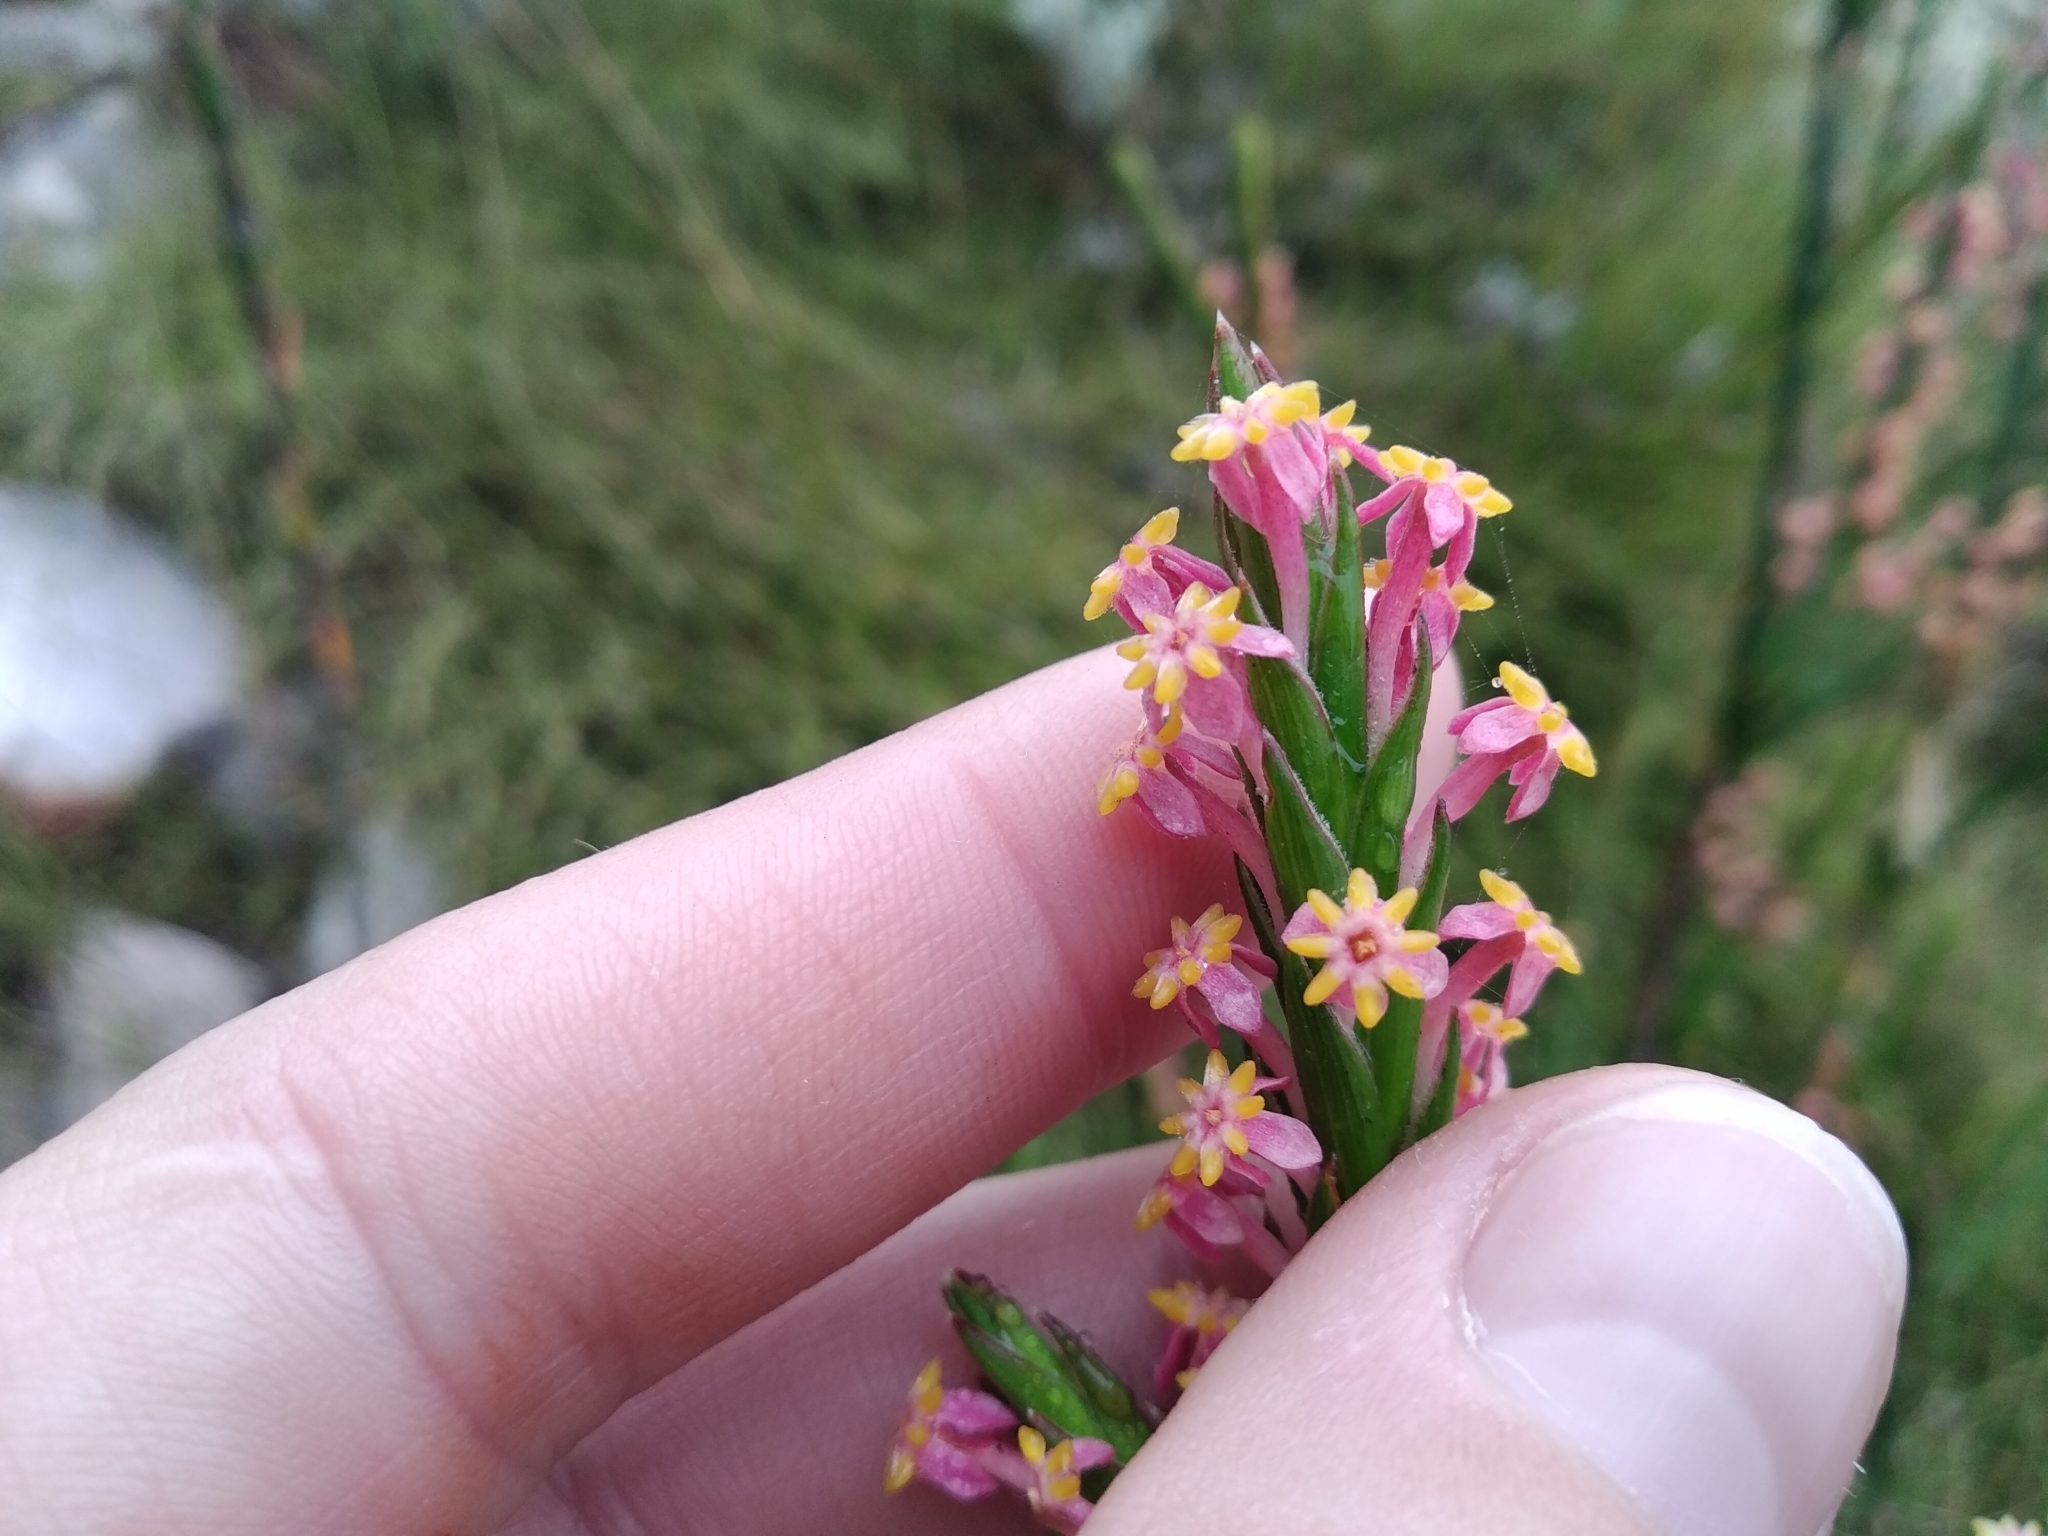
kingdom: Plantae
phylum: Tracheophyta
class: Magnoliopsida
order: Malvales
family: Thymelaeaceae
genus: Struthiola
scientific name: Struthiola ciliata
